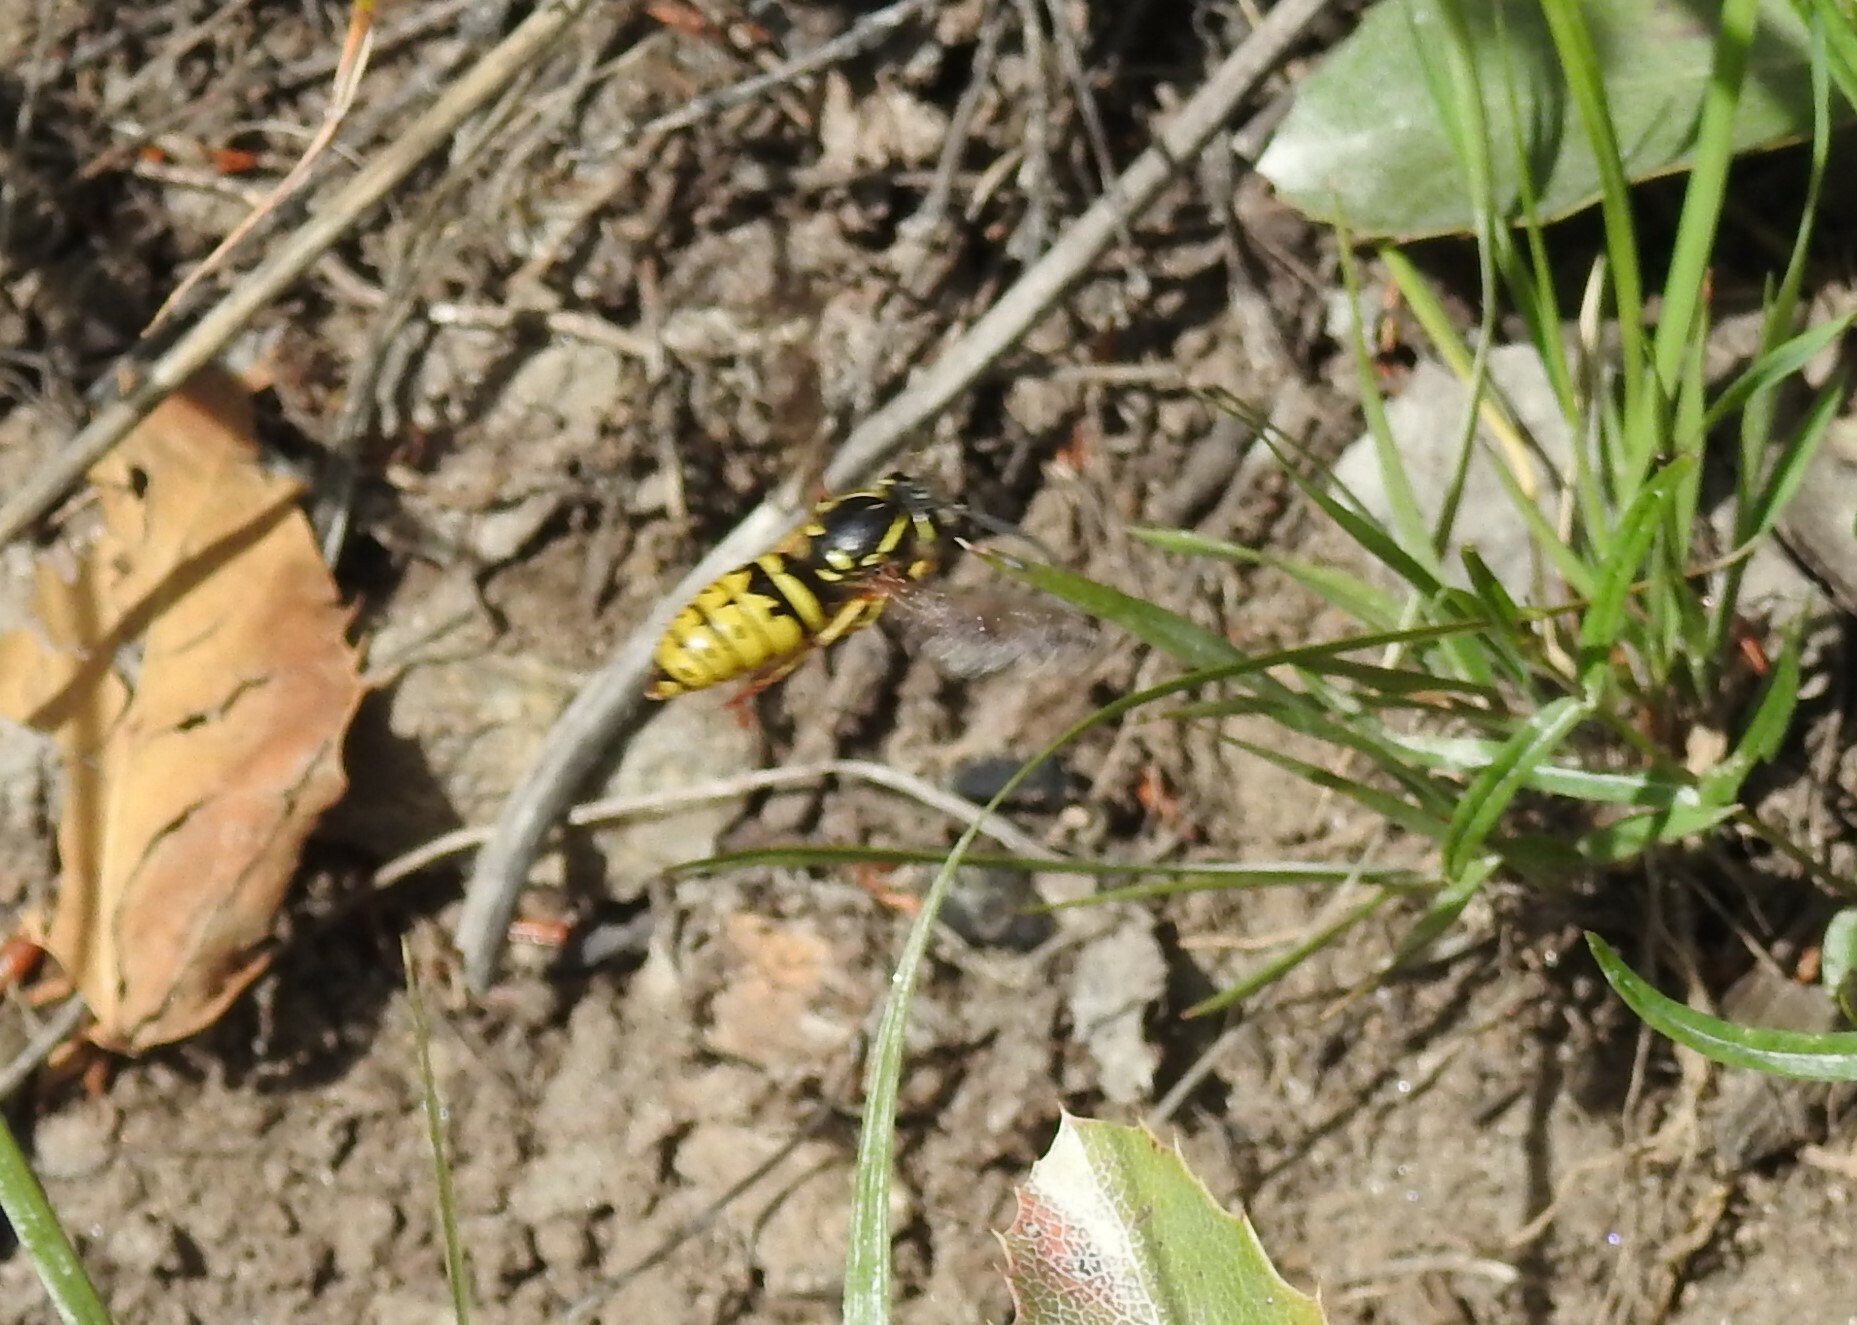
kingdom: Animalia
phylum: Arthropoda
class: Insecta
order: Hymenoptera
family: Vespidae
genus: Vespula
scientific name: Vespula alascensis
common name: Alaska yellowjacket
